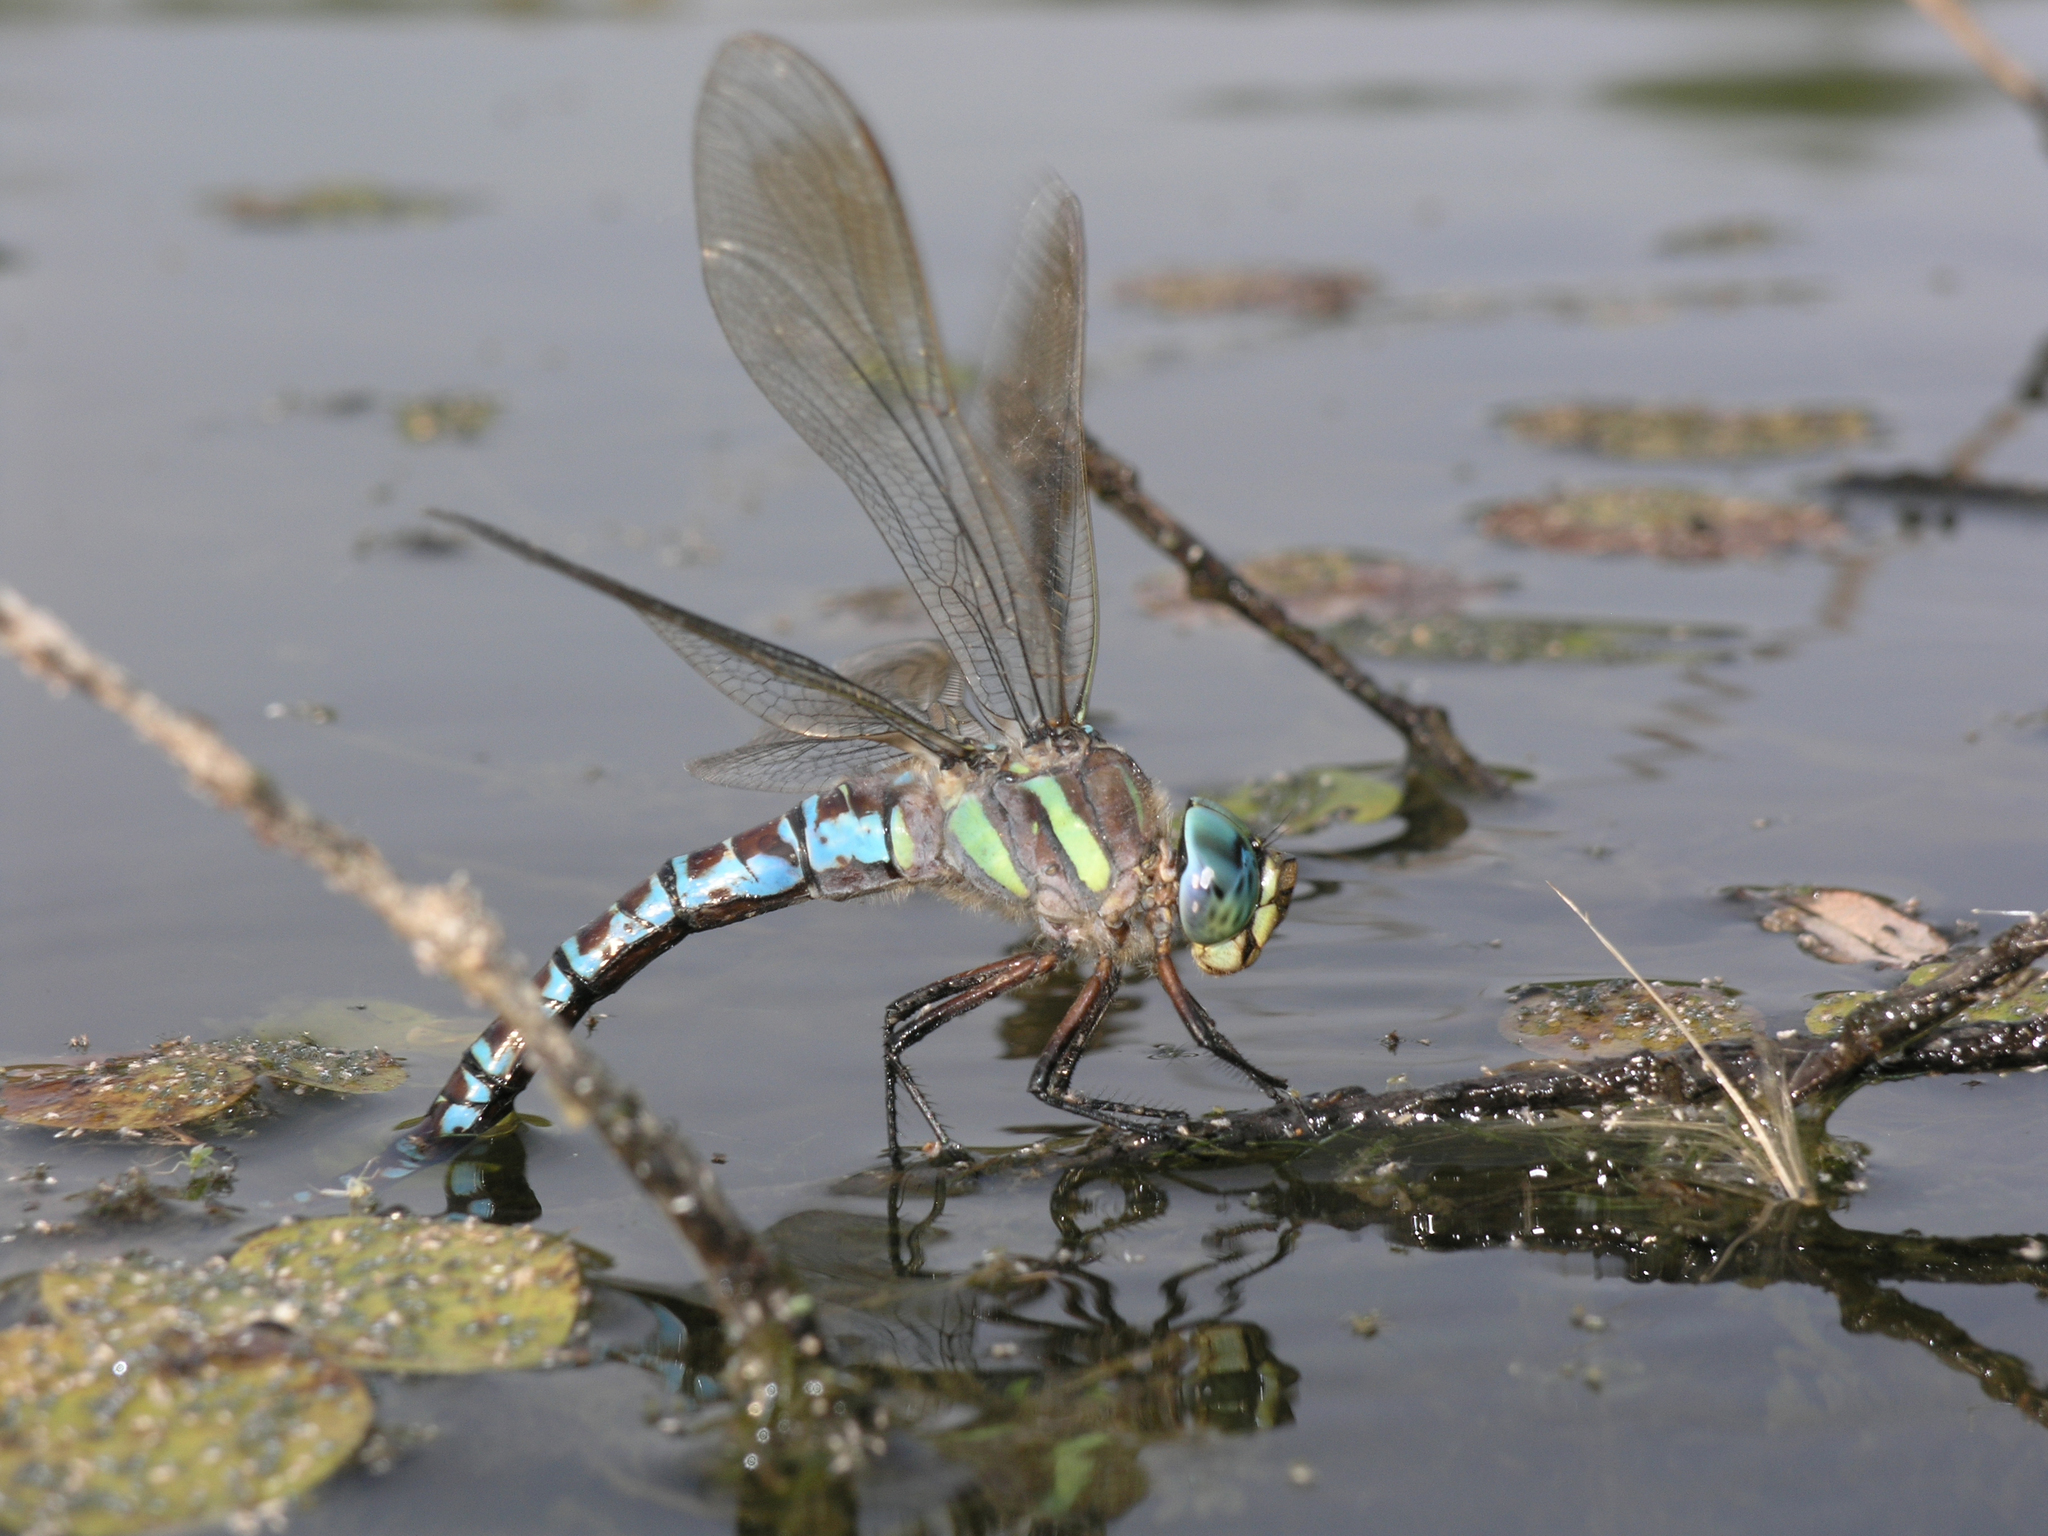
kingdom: Animalia
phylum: Arthropoda
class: Insecta
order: Odonata
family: Aeshnidae
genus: Aeshna
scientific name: Aeshna crenata
